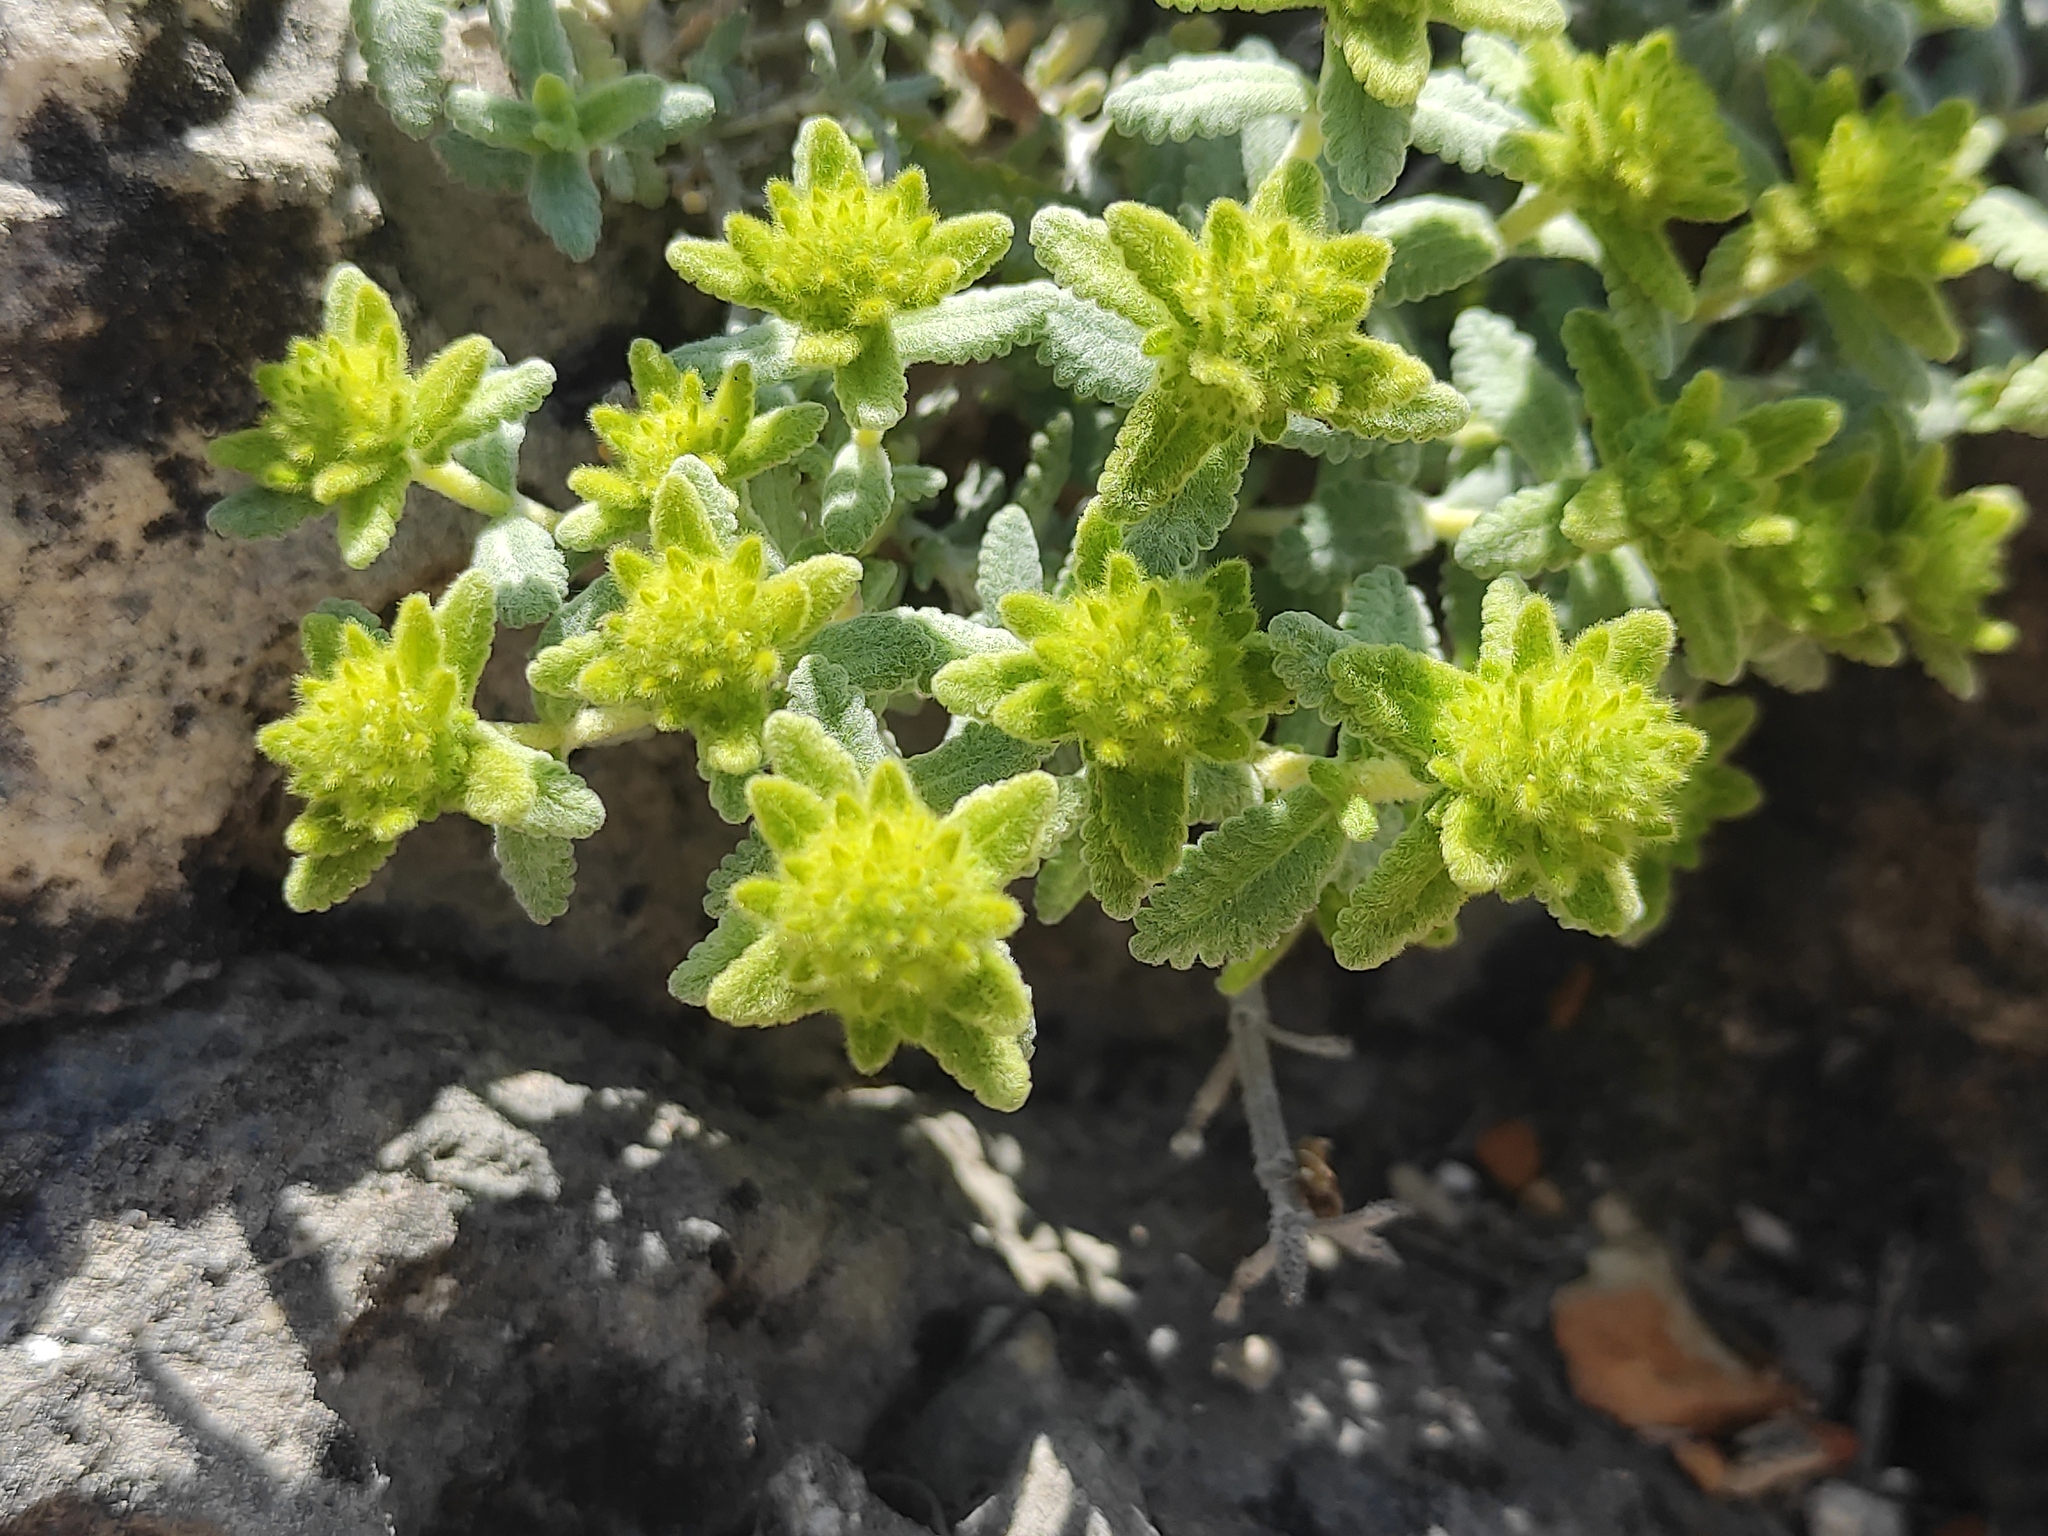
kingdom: Plantae
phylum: Tracheophyta
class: Magnoliopsida
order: Lamiales
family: Lamiaceae
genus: Teucrium
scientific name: Teucrium aureum
